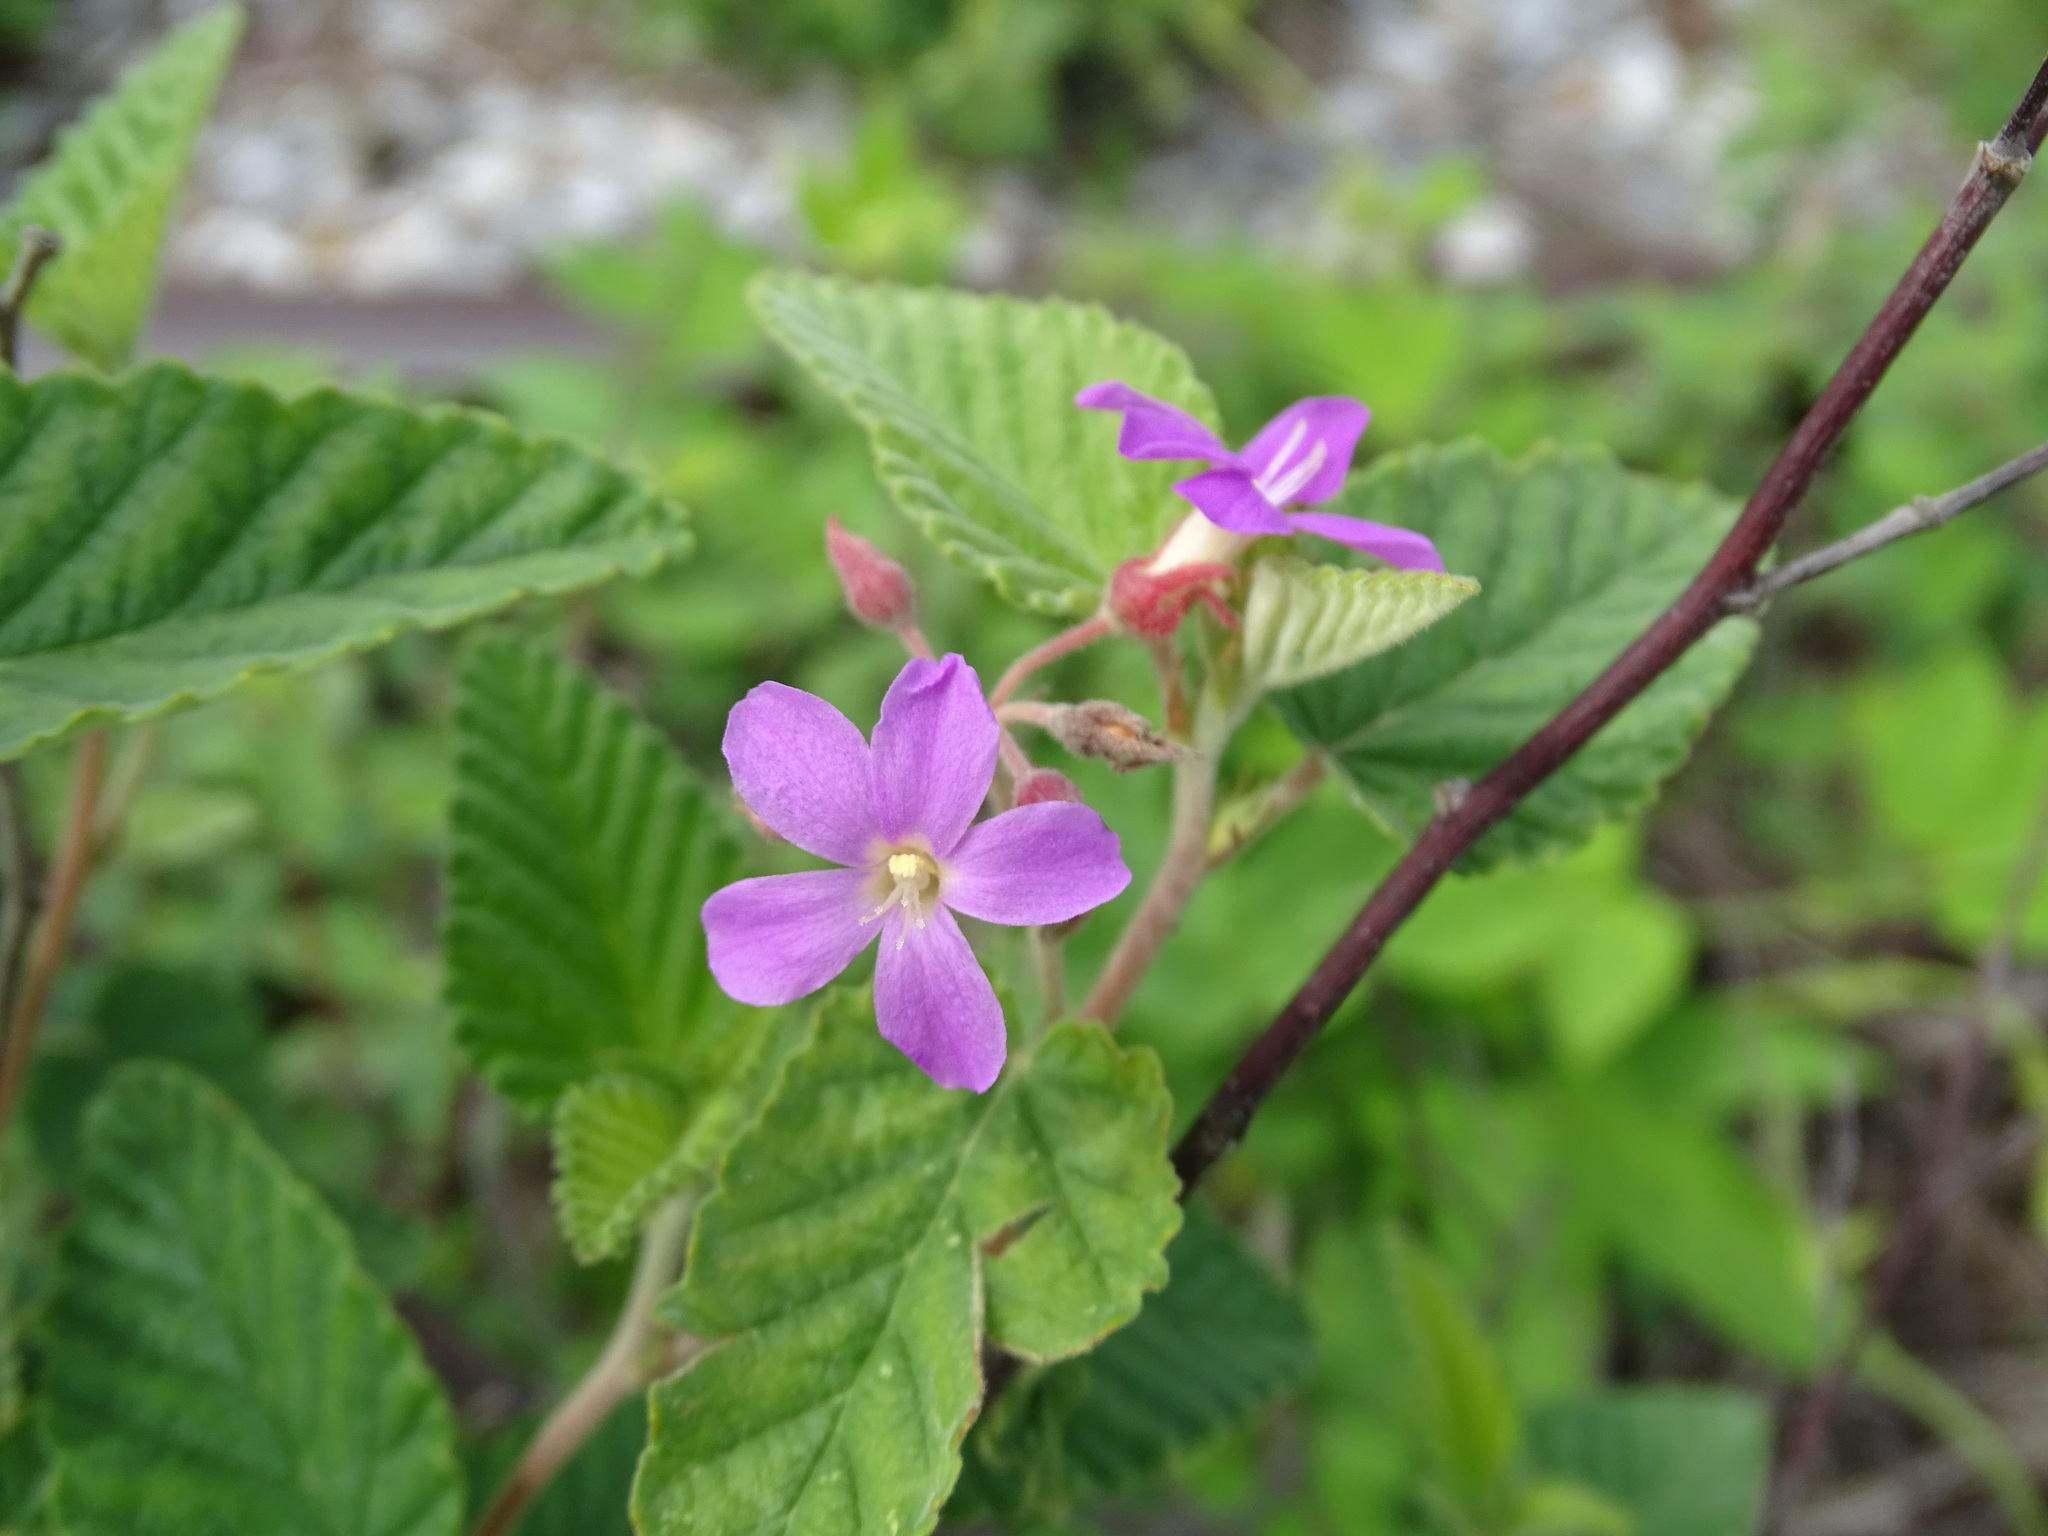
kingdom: Plantae
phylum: Tracheophyta
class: Magnoliopsida
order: Malvales
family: Malvaceae
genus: Melochia
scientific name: Melochia tomentosa
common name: Black torch
